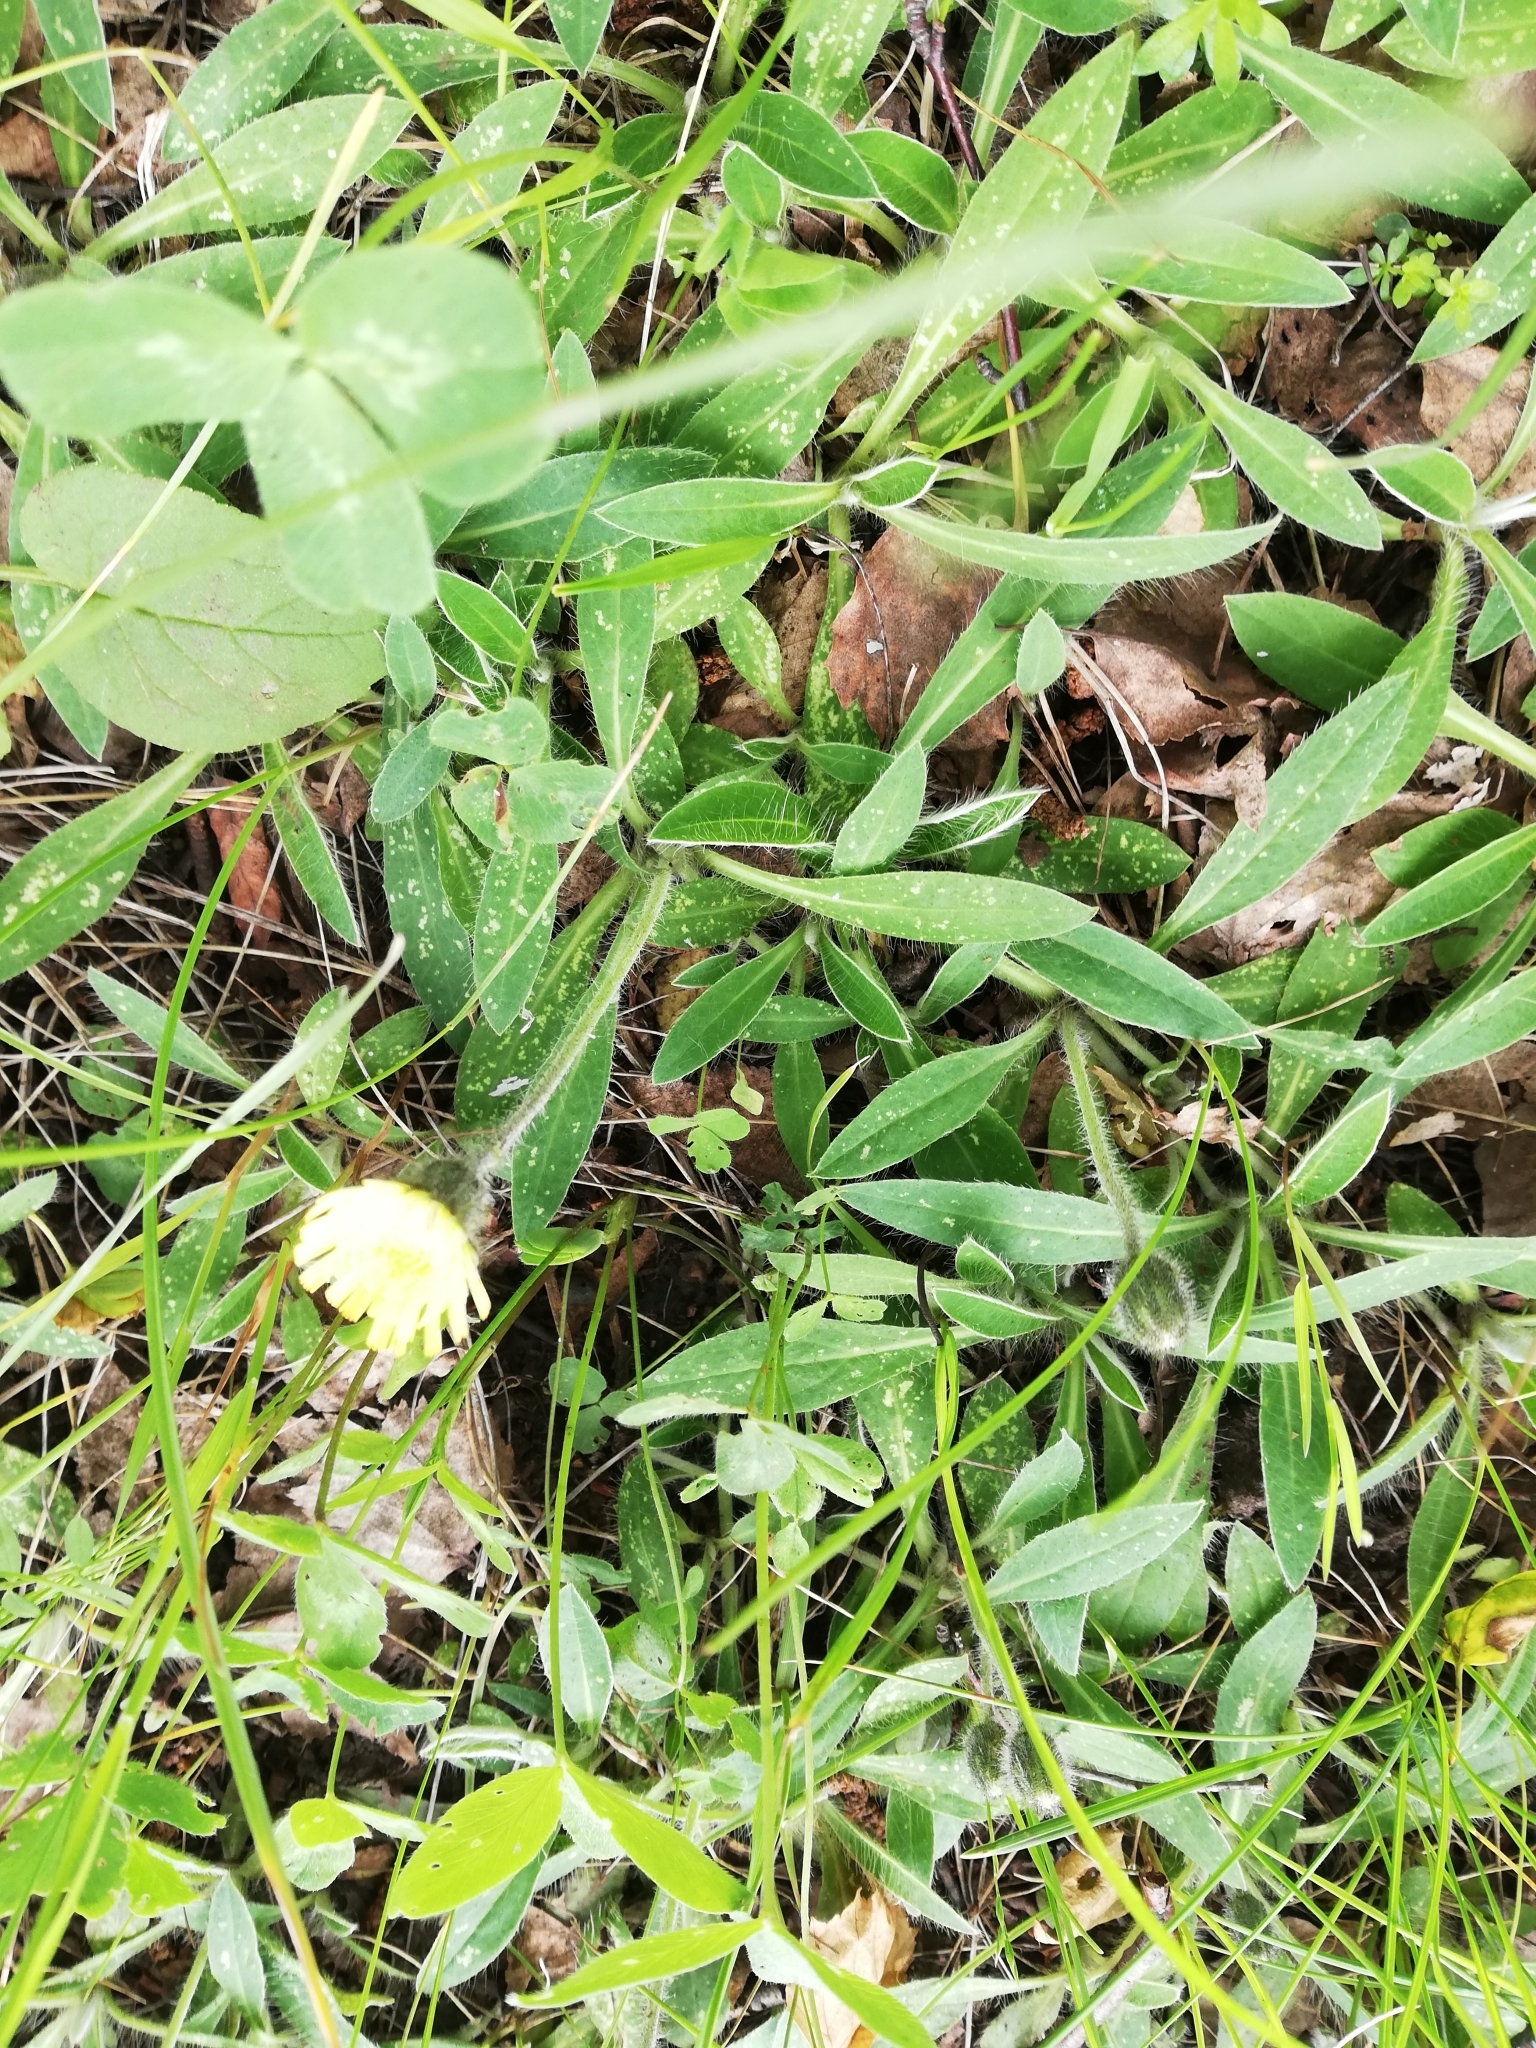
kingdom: Plantae
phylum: Tracheophyta
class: Magnoliopsida
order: Asterales
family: Asteraceae
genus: Pilosella
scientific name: Pilosella officinarum
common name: Mouse-ear hawkweed
